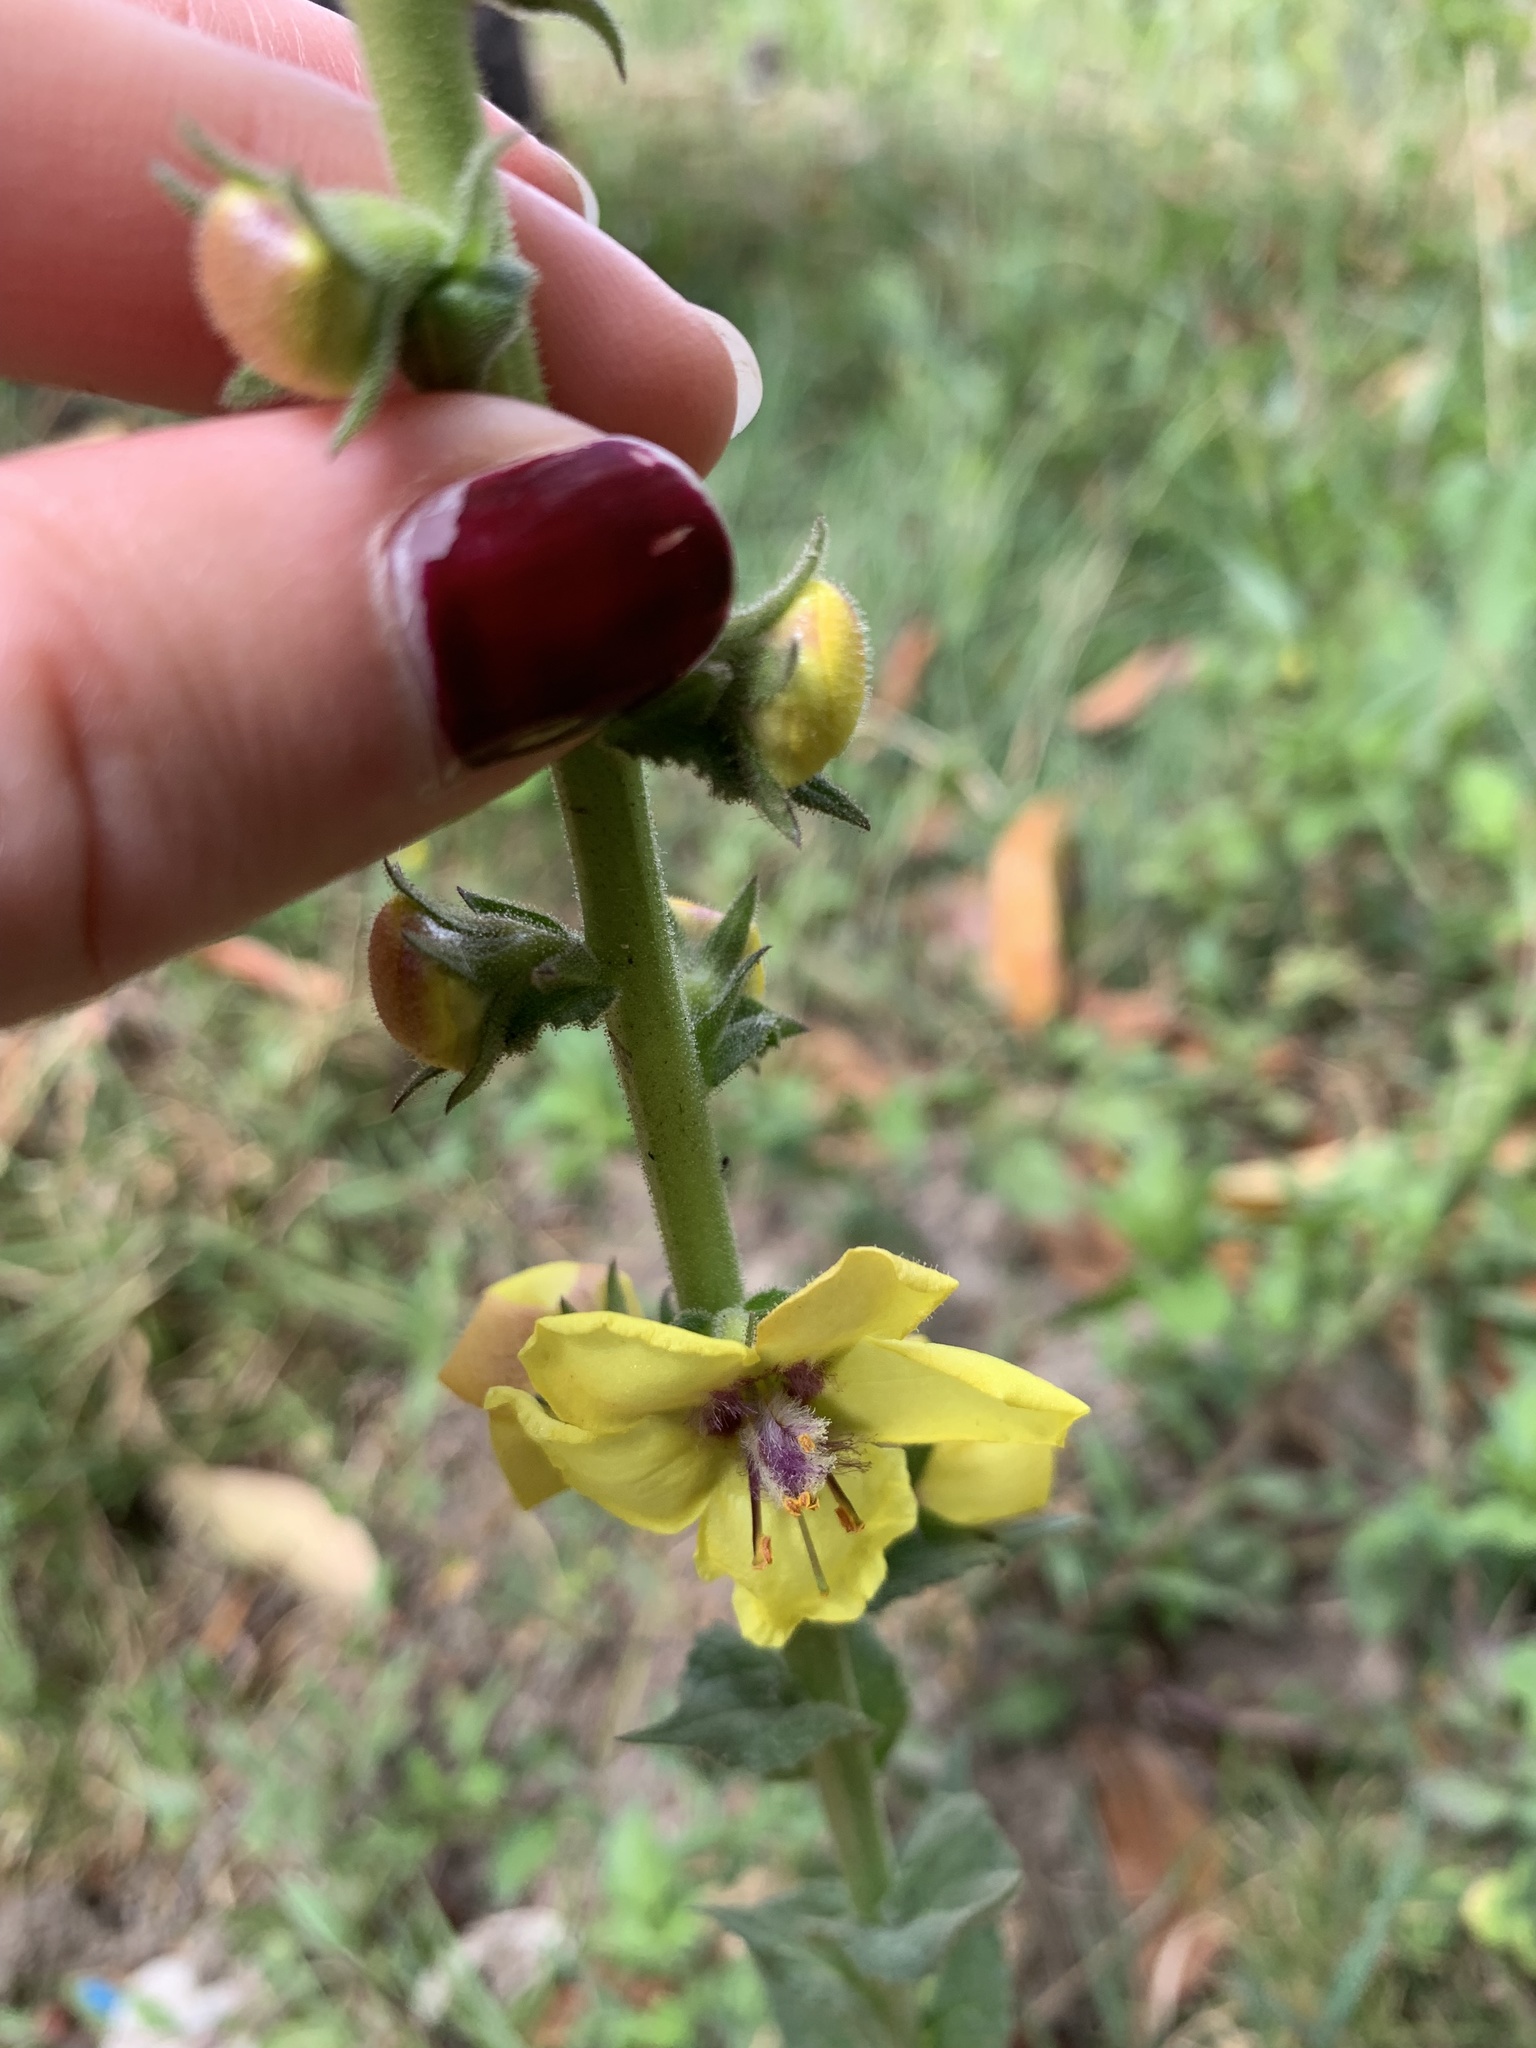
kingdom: Plantae
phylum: Tracheophyta
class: Magnoliopsida
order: Lamiales
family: Scrophulariaceae
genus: Verbascum
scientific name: Verbascum virgatum
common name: Twiggy mullein
